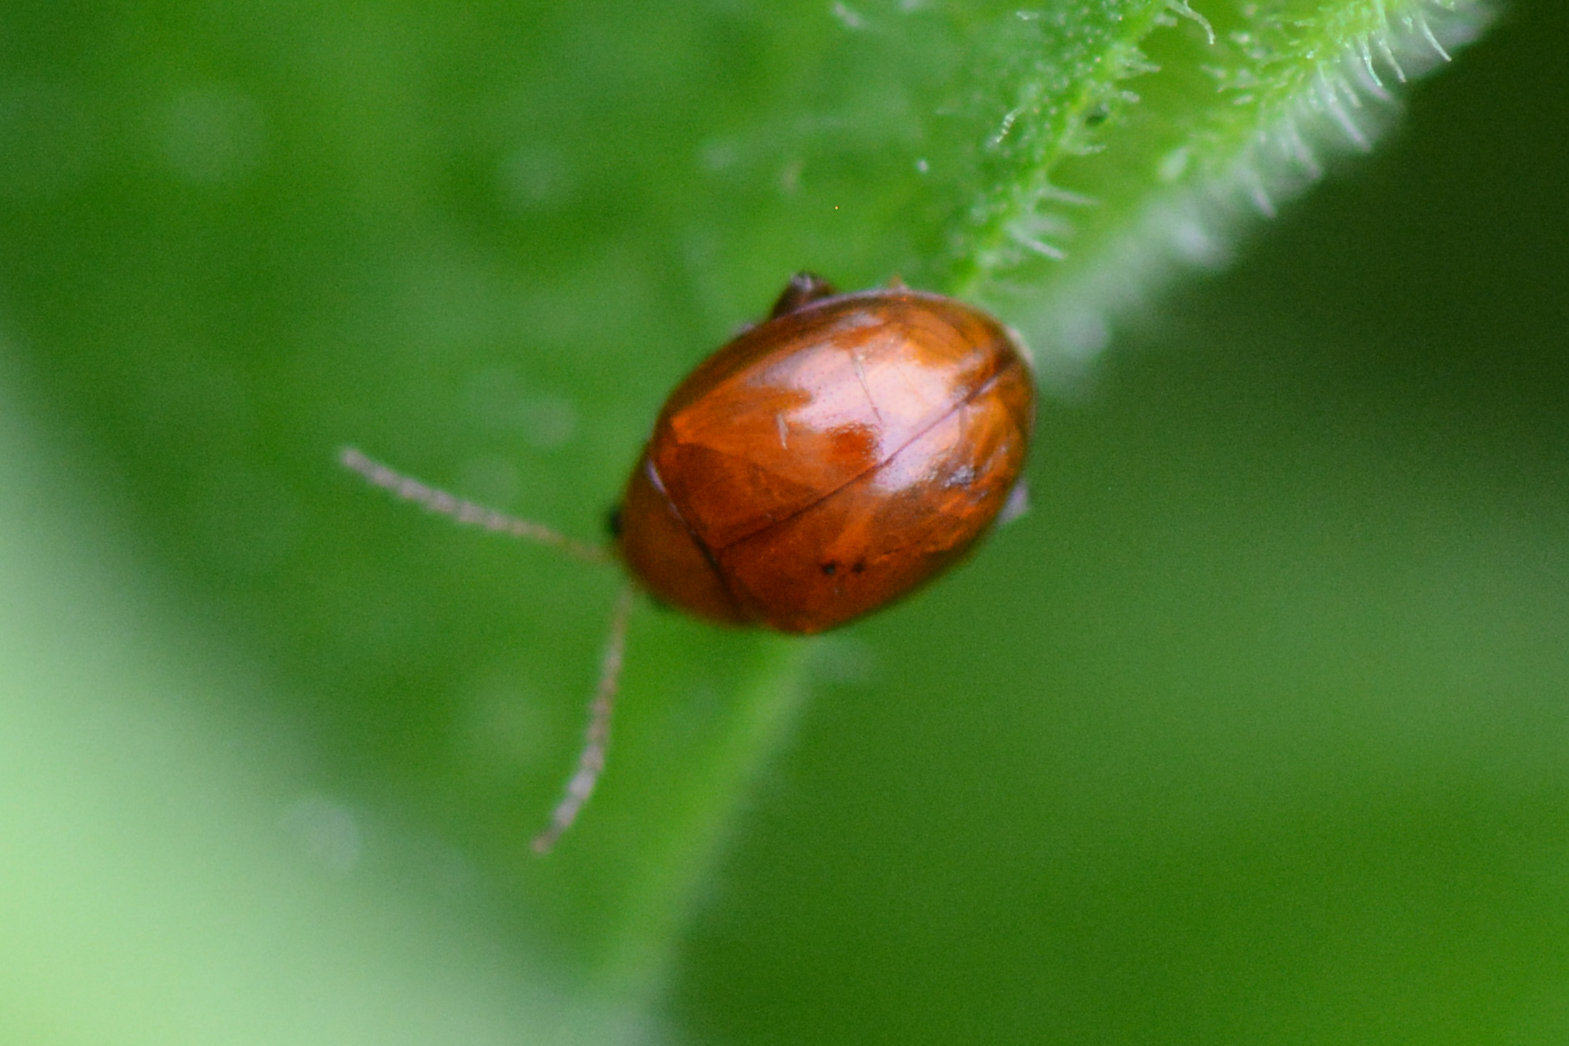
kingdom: Animalia
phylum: Arthropoda
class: Insecta
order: Coleoptera
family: Chrysomelidae
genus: Sphaeroderma
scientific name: Sphaeroderma rubi
